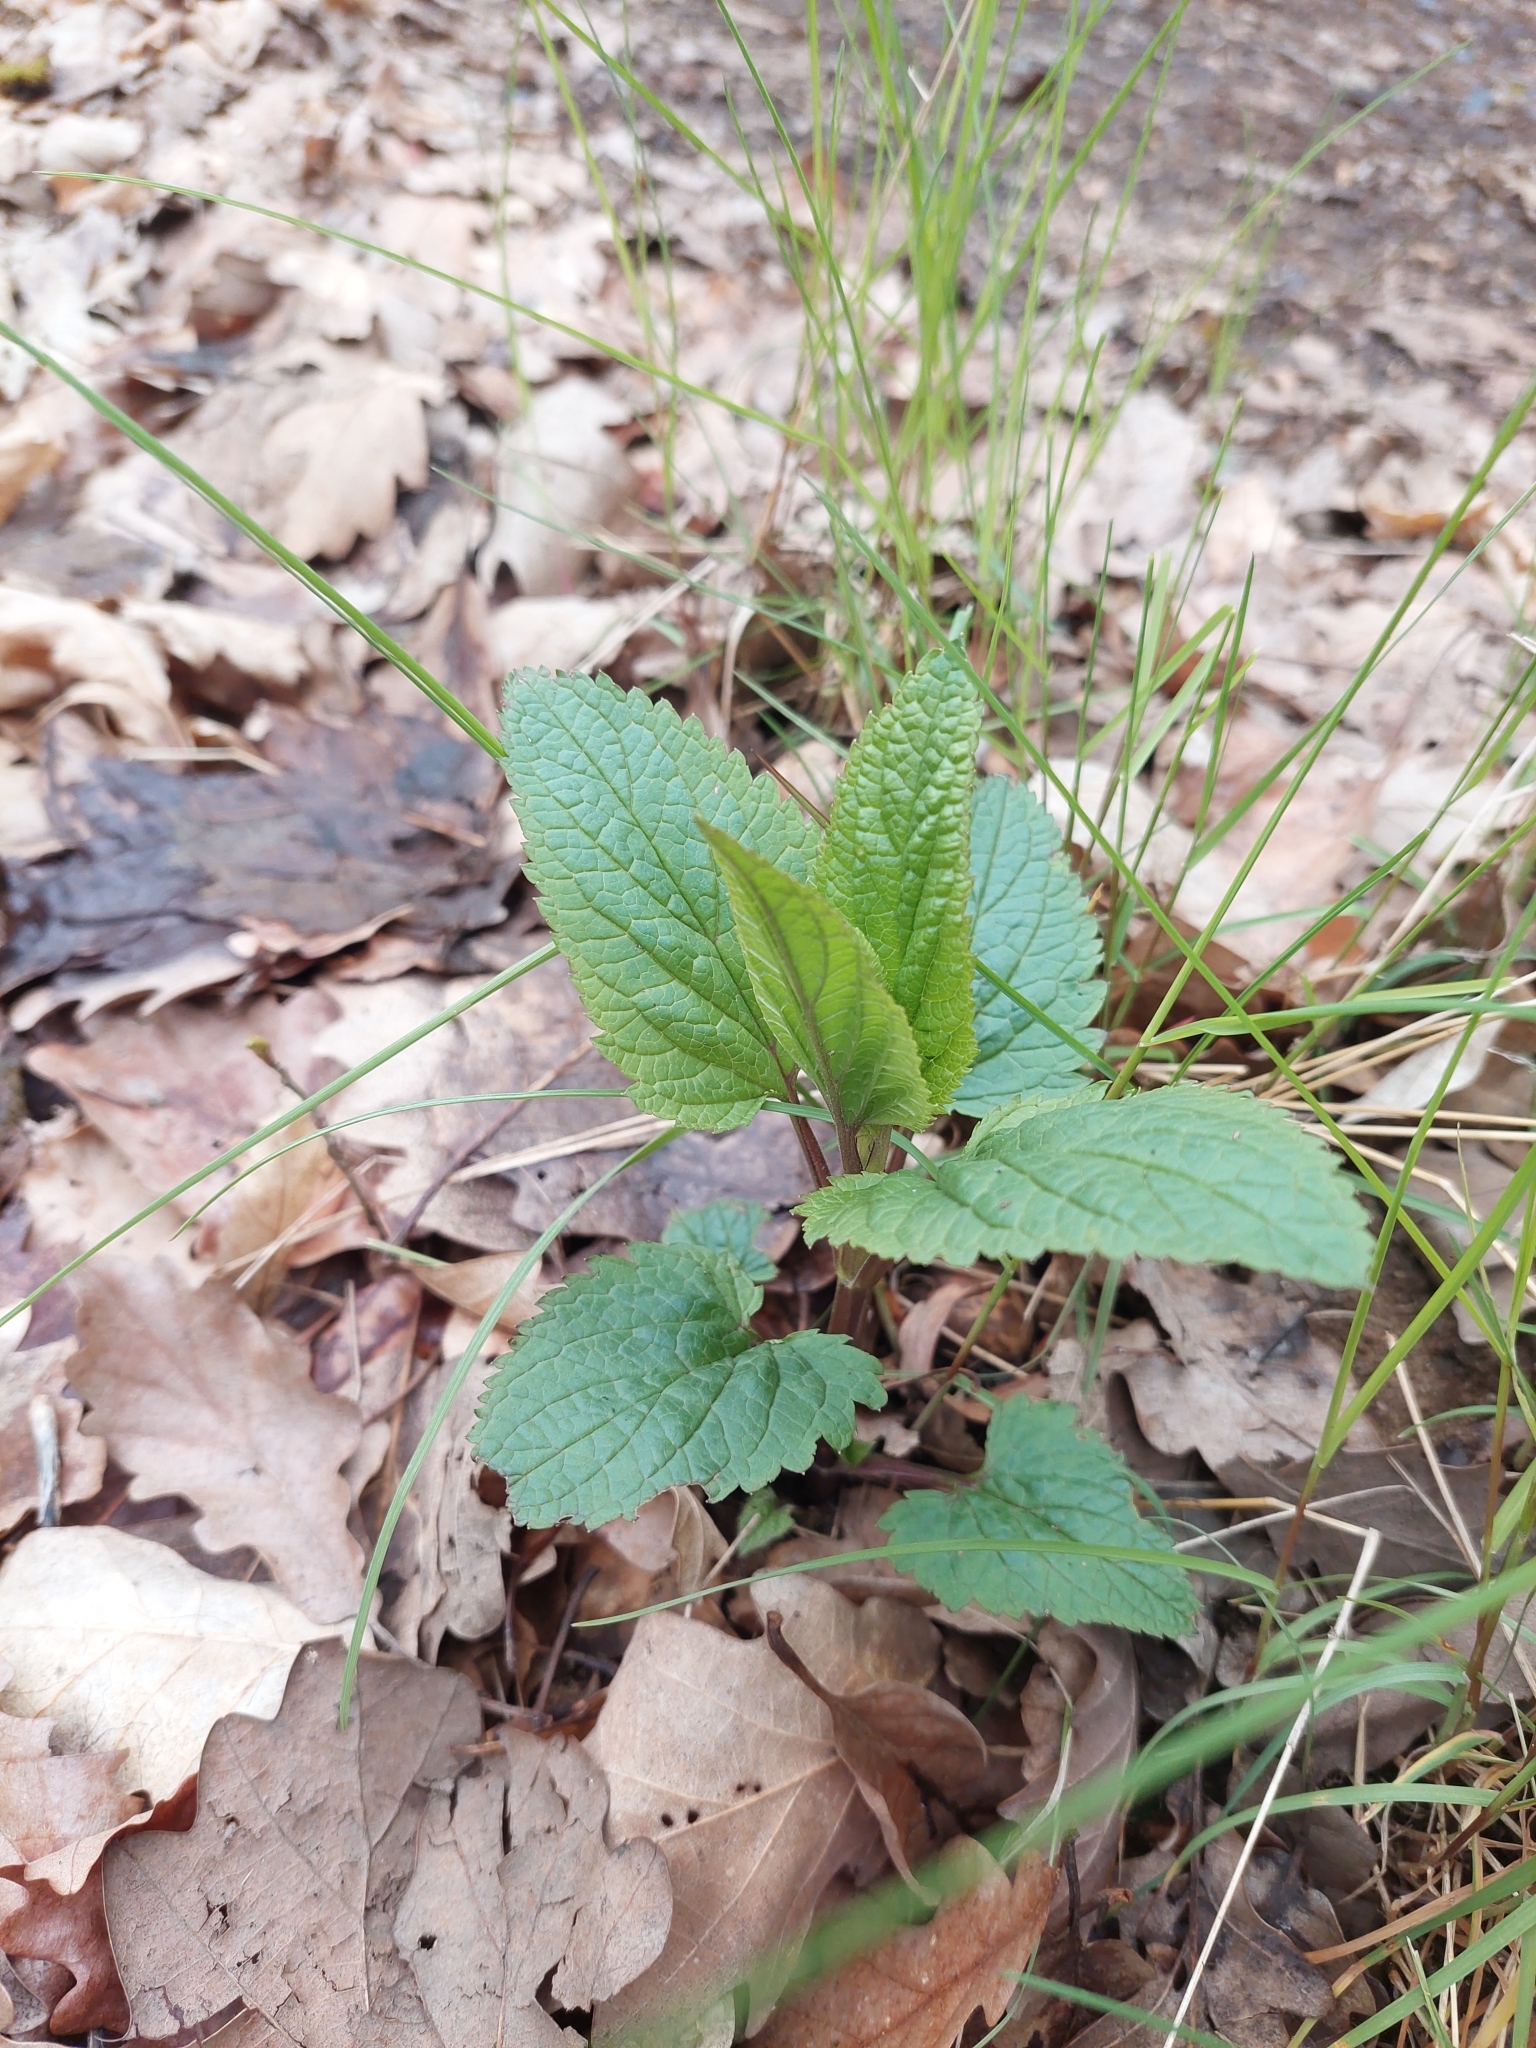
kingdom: Plantae
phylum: Tracheophyta
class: Magnoliopsida
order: Lamiales
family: Scrophulariaceae
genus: Scrophularia
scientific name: Scrophularia nodosa
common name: Common figwort
